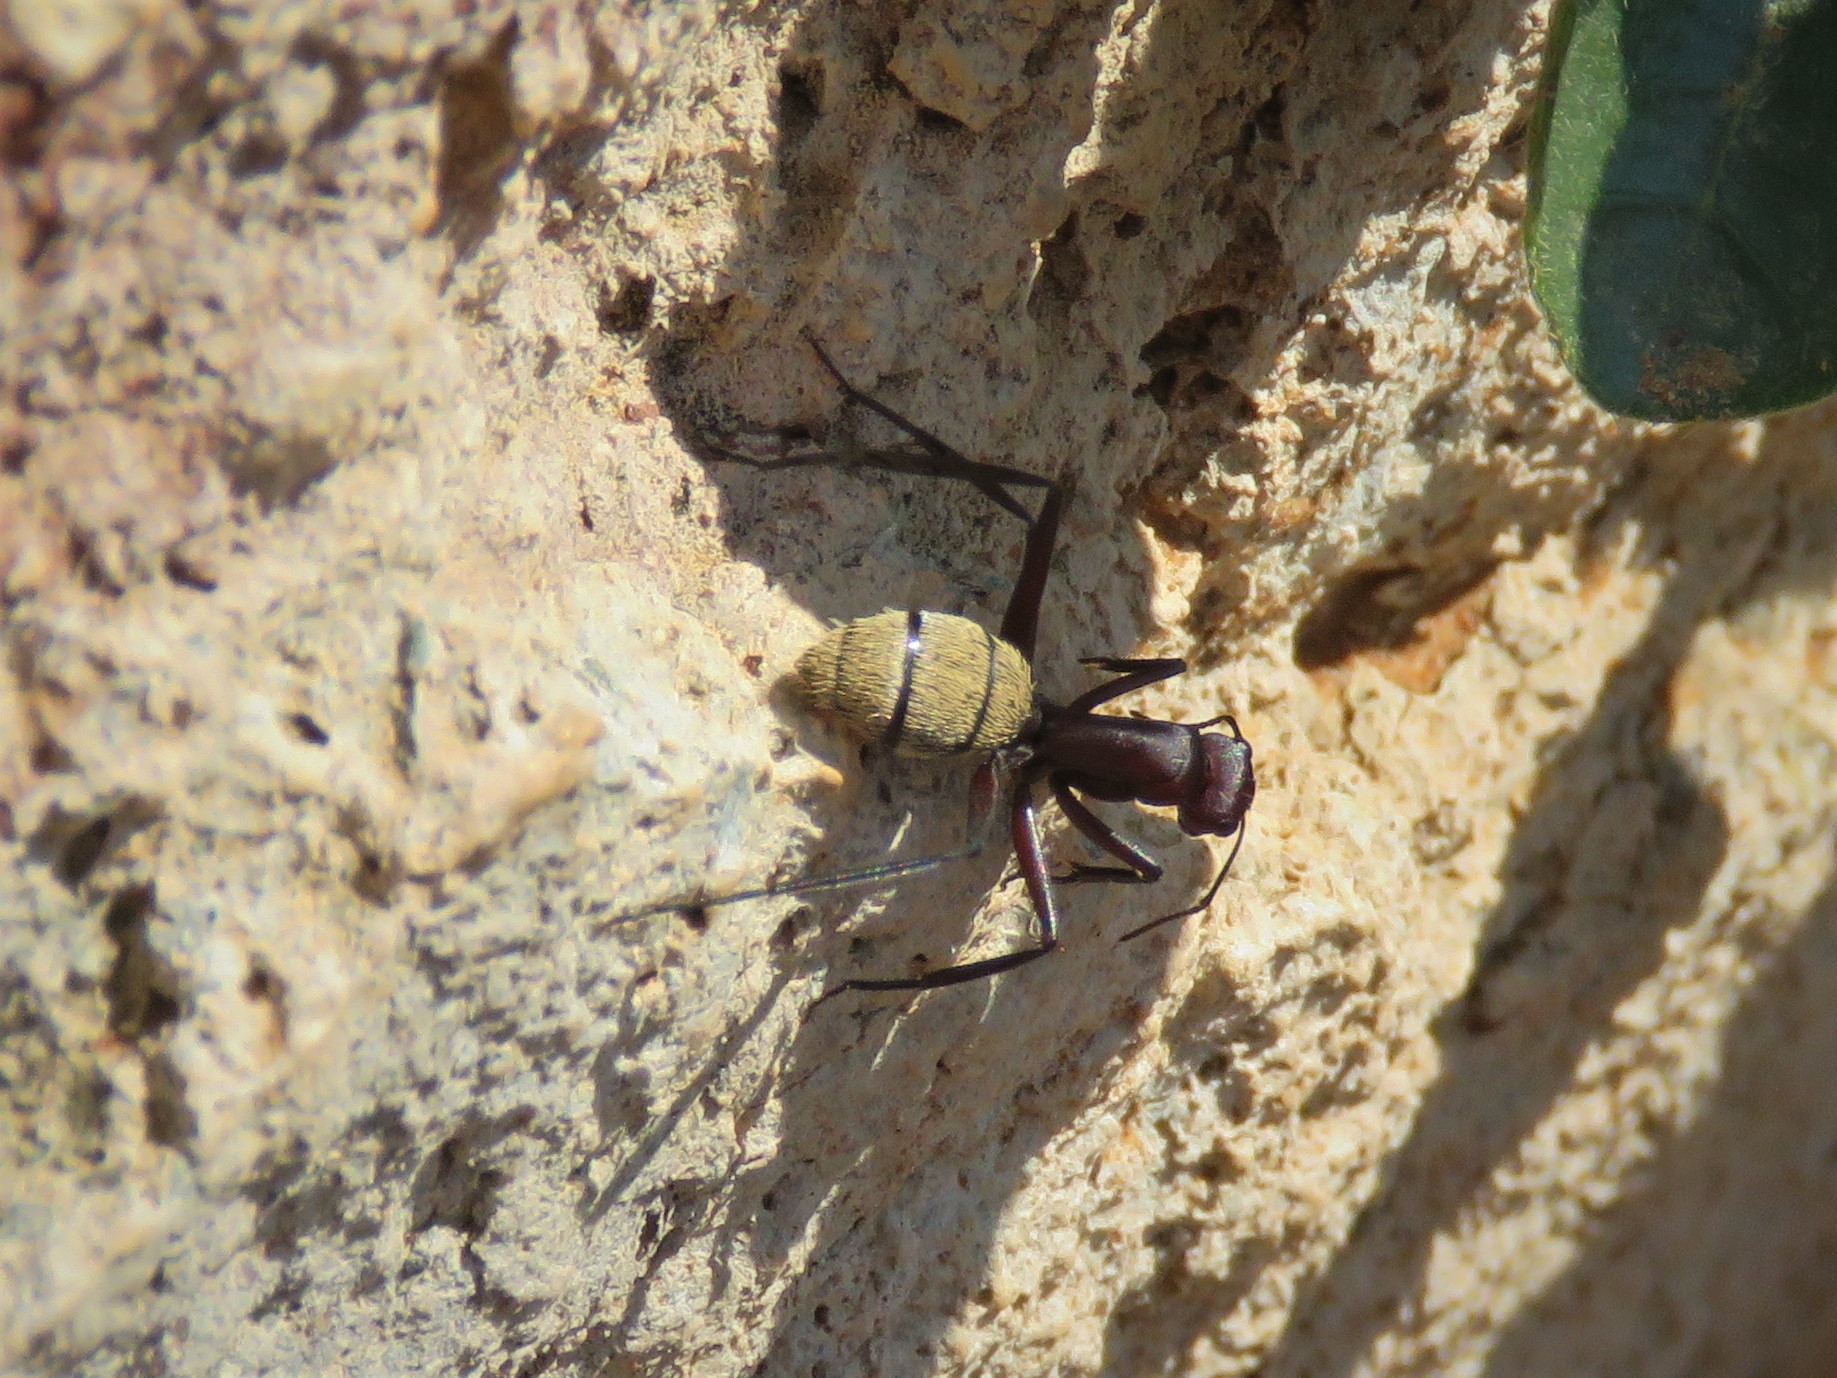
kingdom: Animalia
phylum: Arthropoda
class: Insecta
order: Hymenoptera
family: Formicidae
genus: Camponotus
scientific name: Camponotus fulvopilosus
